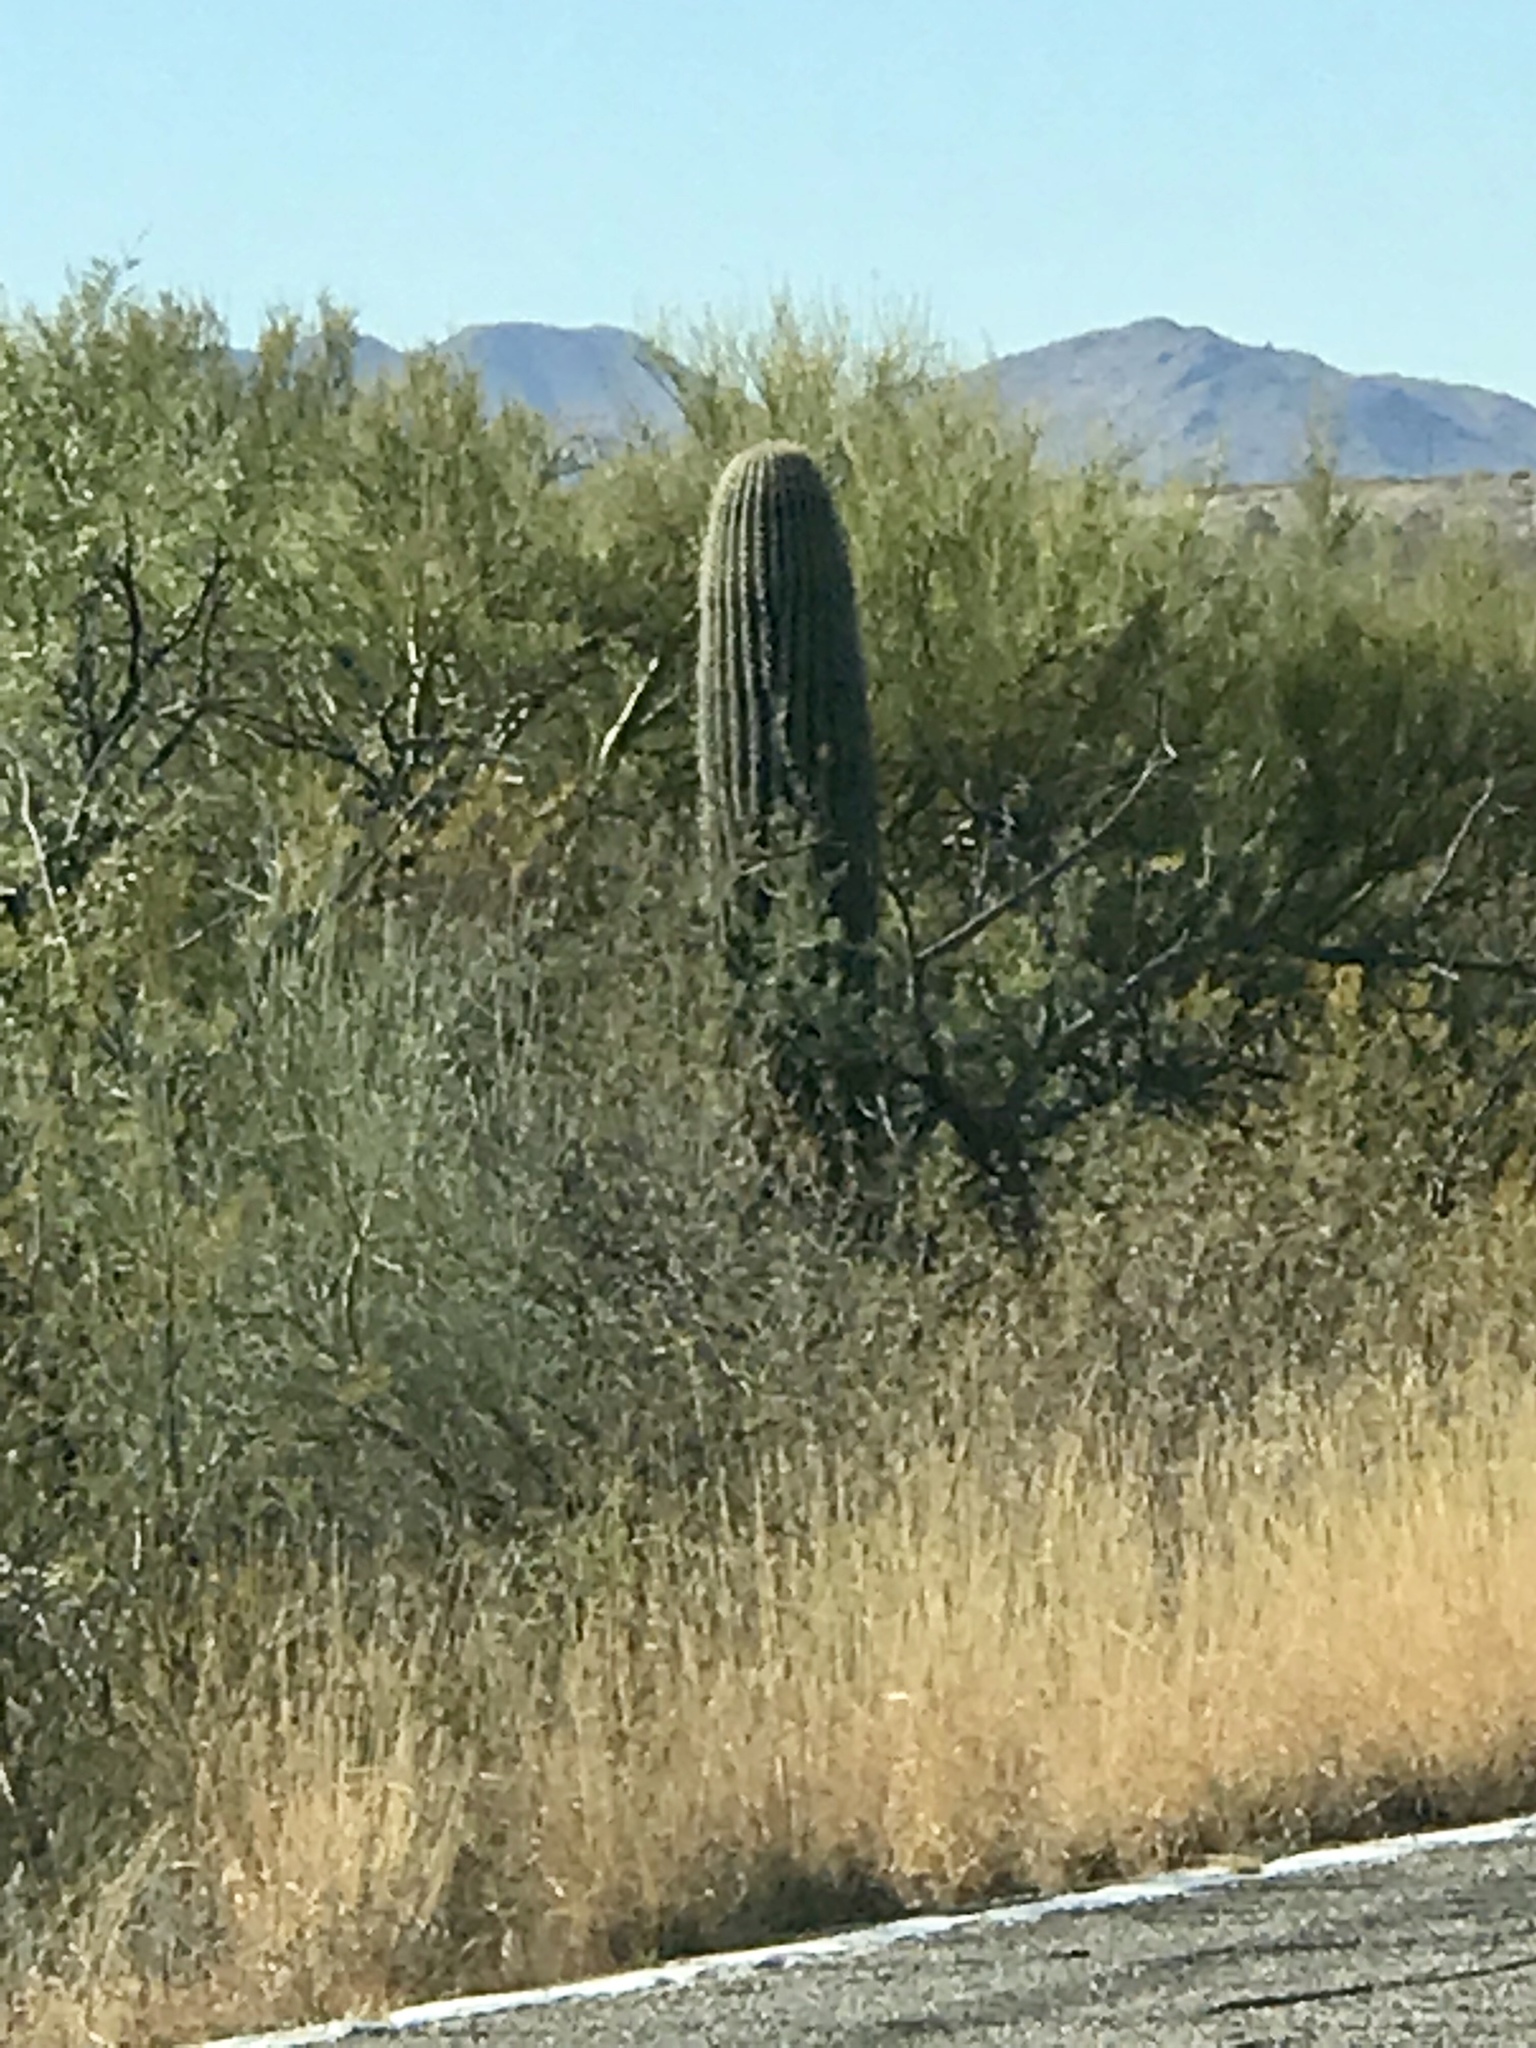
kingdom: Plantae
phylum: Tracheophyta
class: Magnoliopsida
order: Caryophyllales
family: Cactaceae
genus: Carnegiea
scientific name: Carnegiea gigantea
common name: Saguaro
